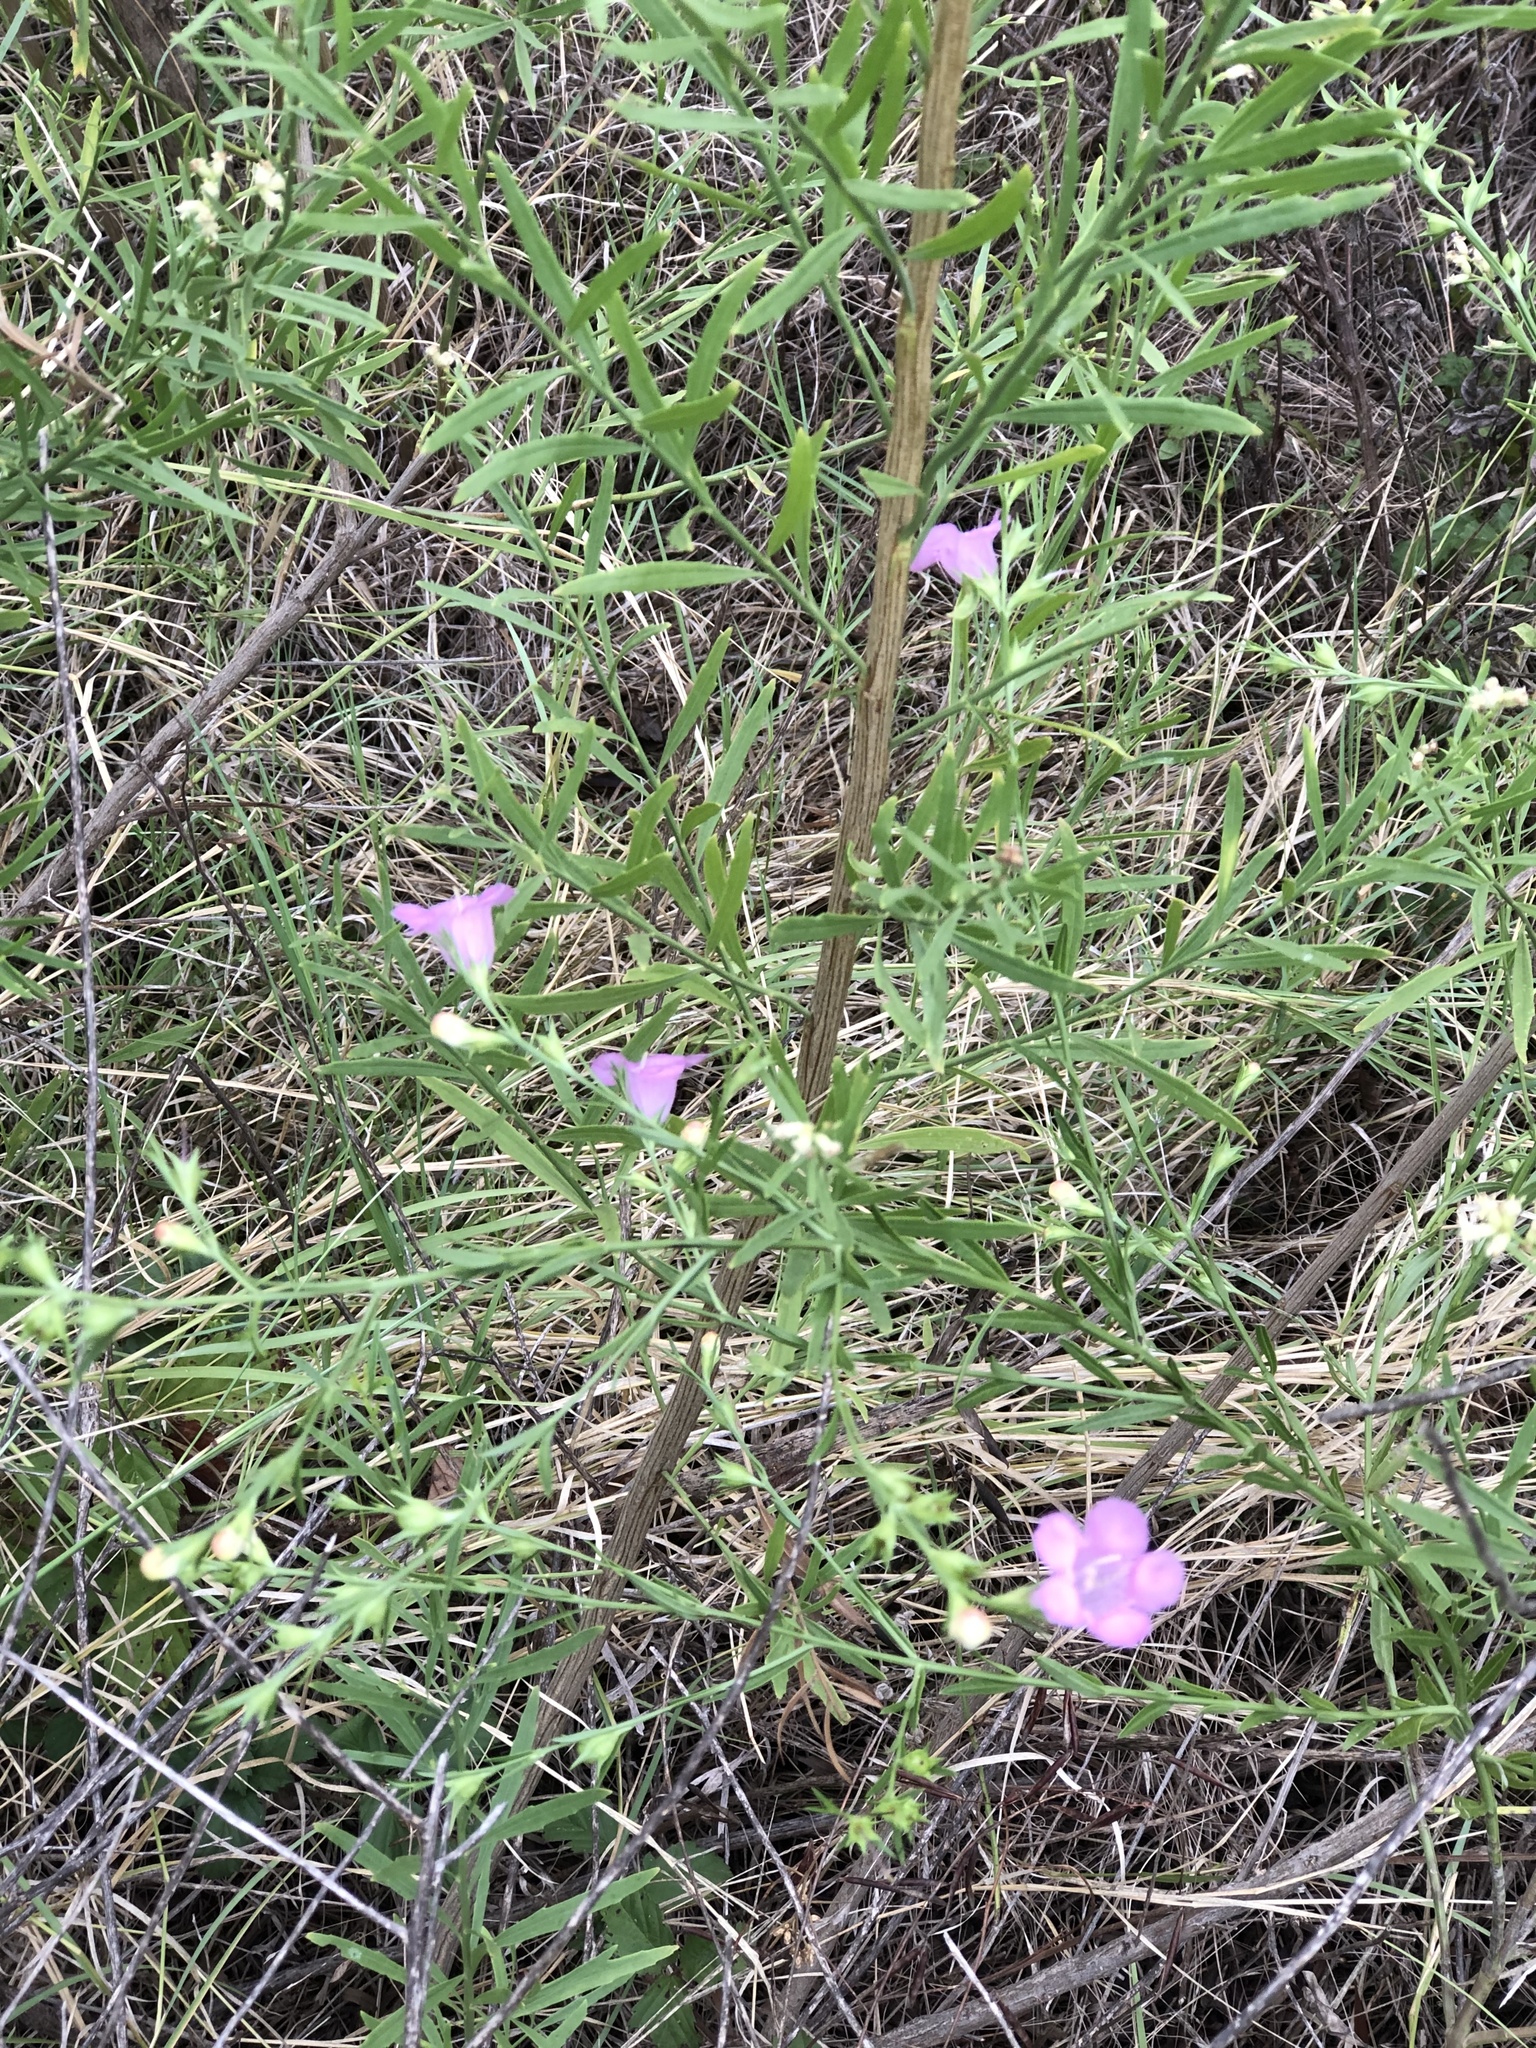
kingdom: Plantae
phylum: Tracheophyta
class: Magnoliopsida
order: Lamiales
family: Orobanchaceae
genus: Agalinis
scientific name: Agalinis heterophylla
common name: Prairie agalinis
